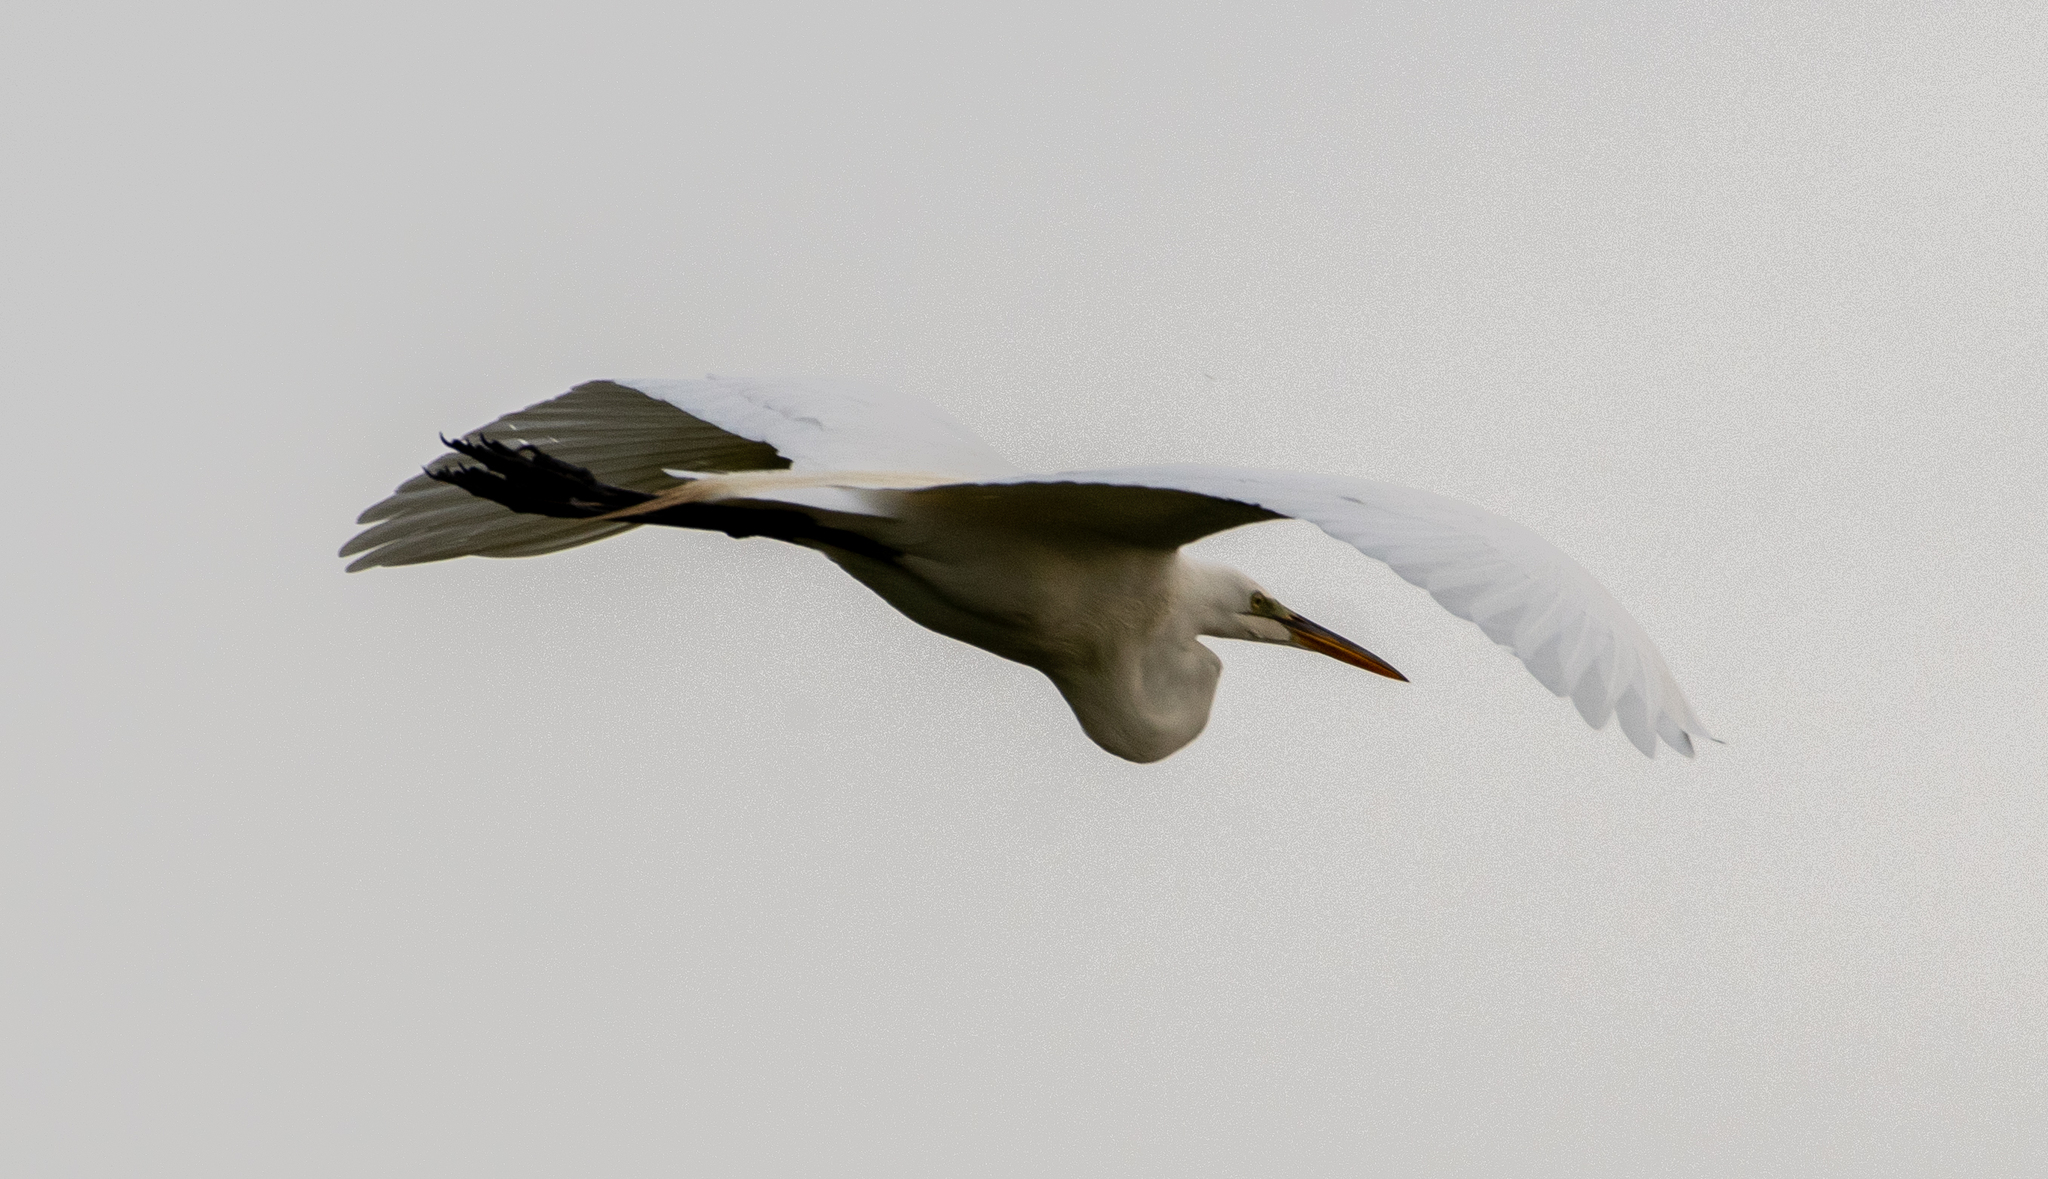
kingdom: Animalia
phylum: Chordata
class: Aves
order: Pelecaniformes
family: Ardeidae
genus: Ardea
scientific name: Ardea alba
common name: Great egret
